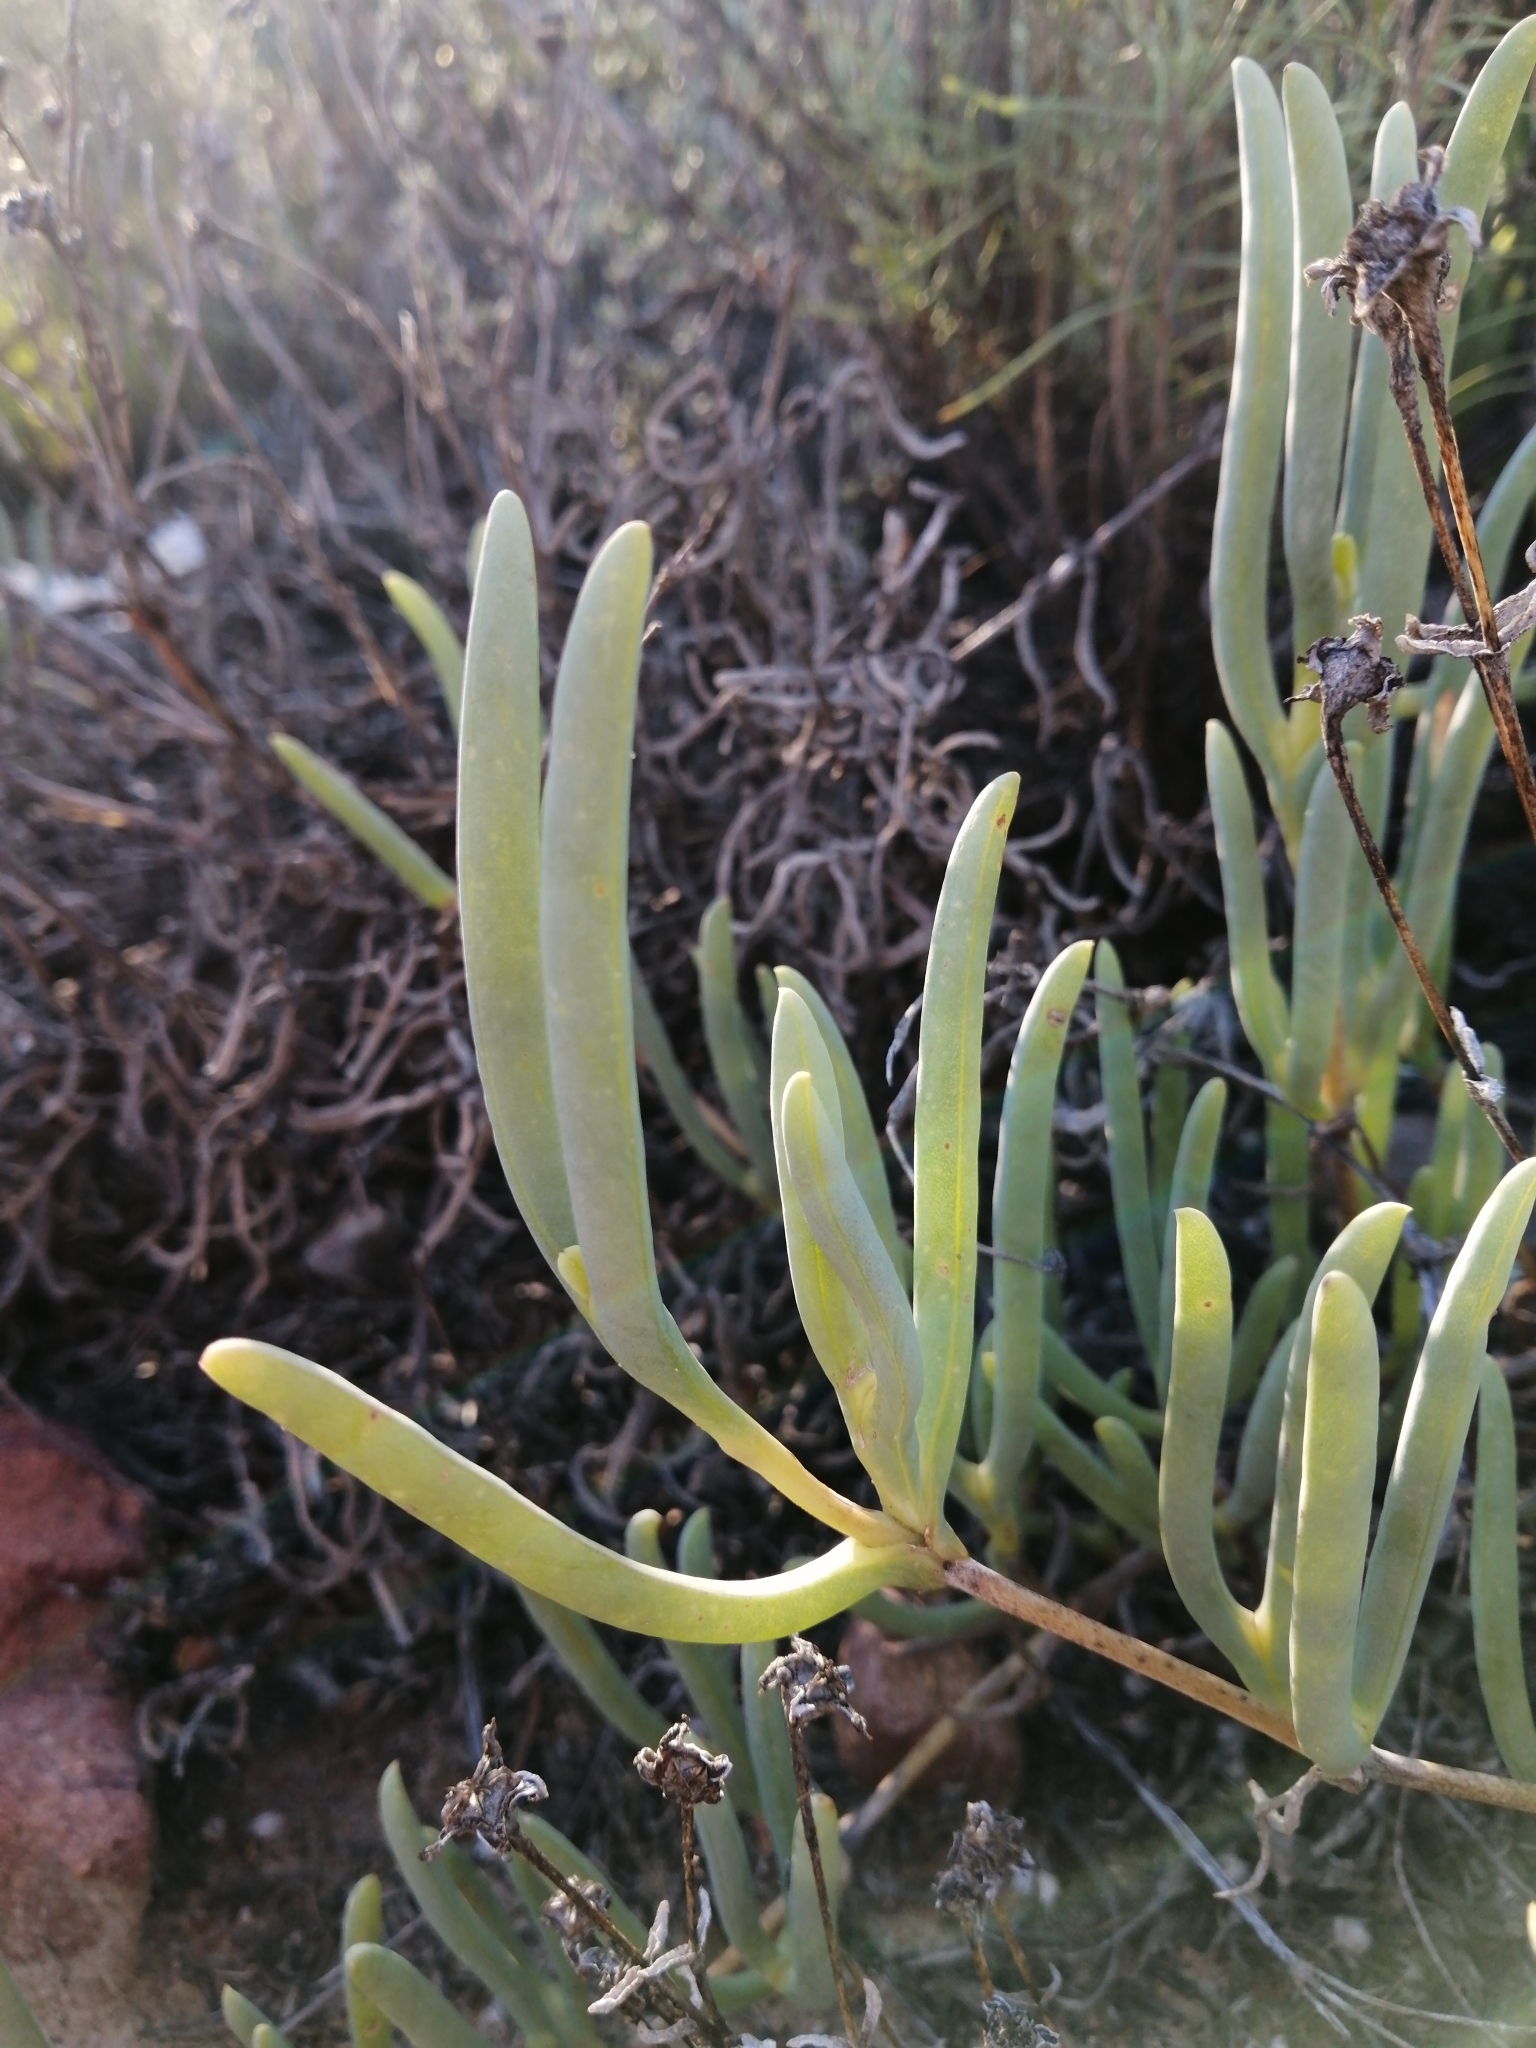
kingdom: Plantae
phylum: Tracheophyta
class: Magnoliopsida
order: Caryophyllales
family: Aizoaceae
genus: Ruschia
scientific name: Ruschia caroli
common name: Shrubby dewplant
